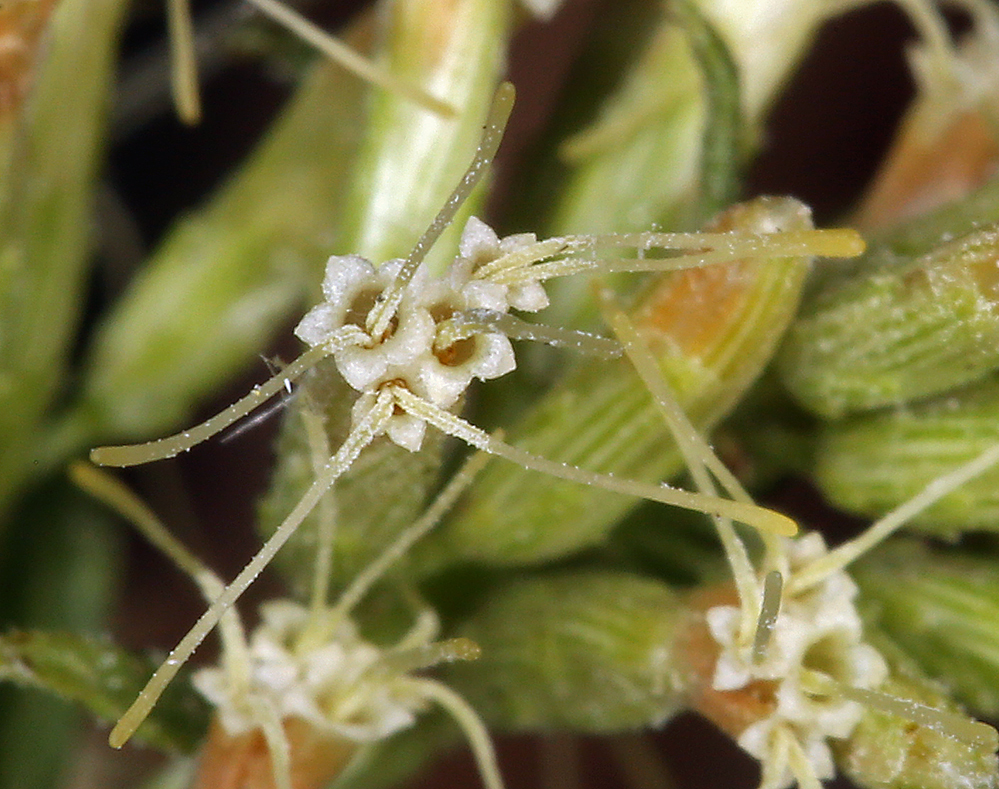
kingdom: Plantae
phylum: Tracheophyta
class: Magnoliopsida
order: Asterales
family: Asteraceae
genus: Brickellia
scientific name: Brickellia longifolia
